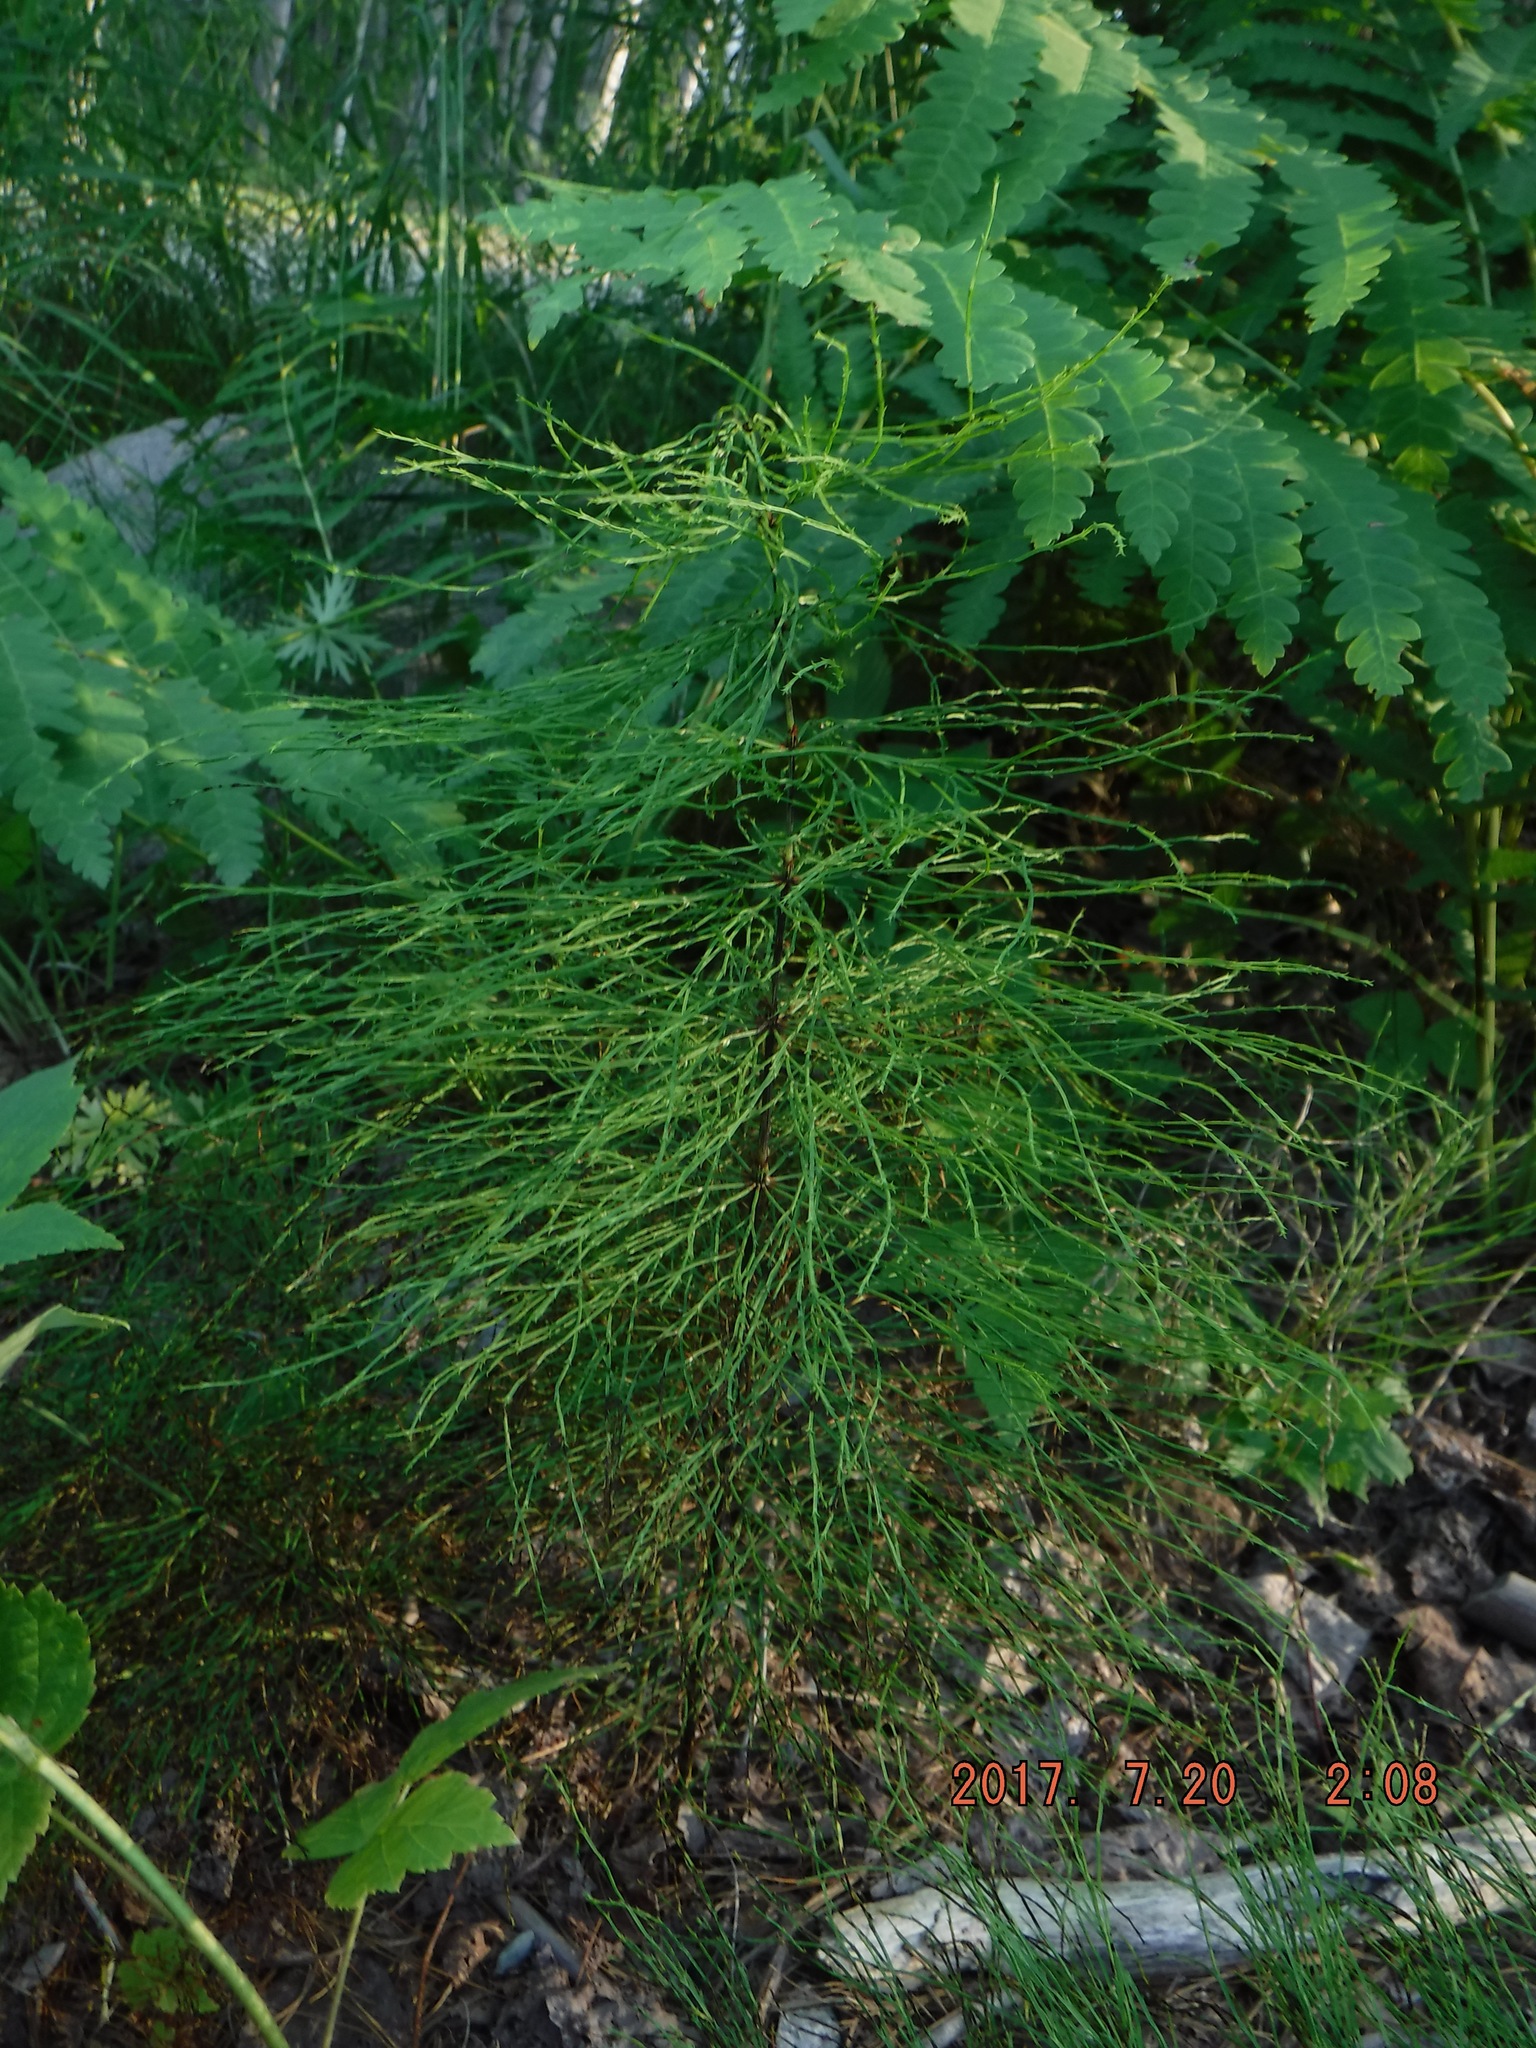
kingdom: Plantae
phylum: Tracheophyta
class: Polypodiopsida
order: Equisetales
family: Equisetaceae
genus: Equisetum
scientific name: Equisetum sylvaticum
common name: Wood horsetail
